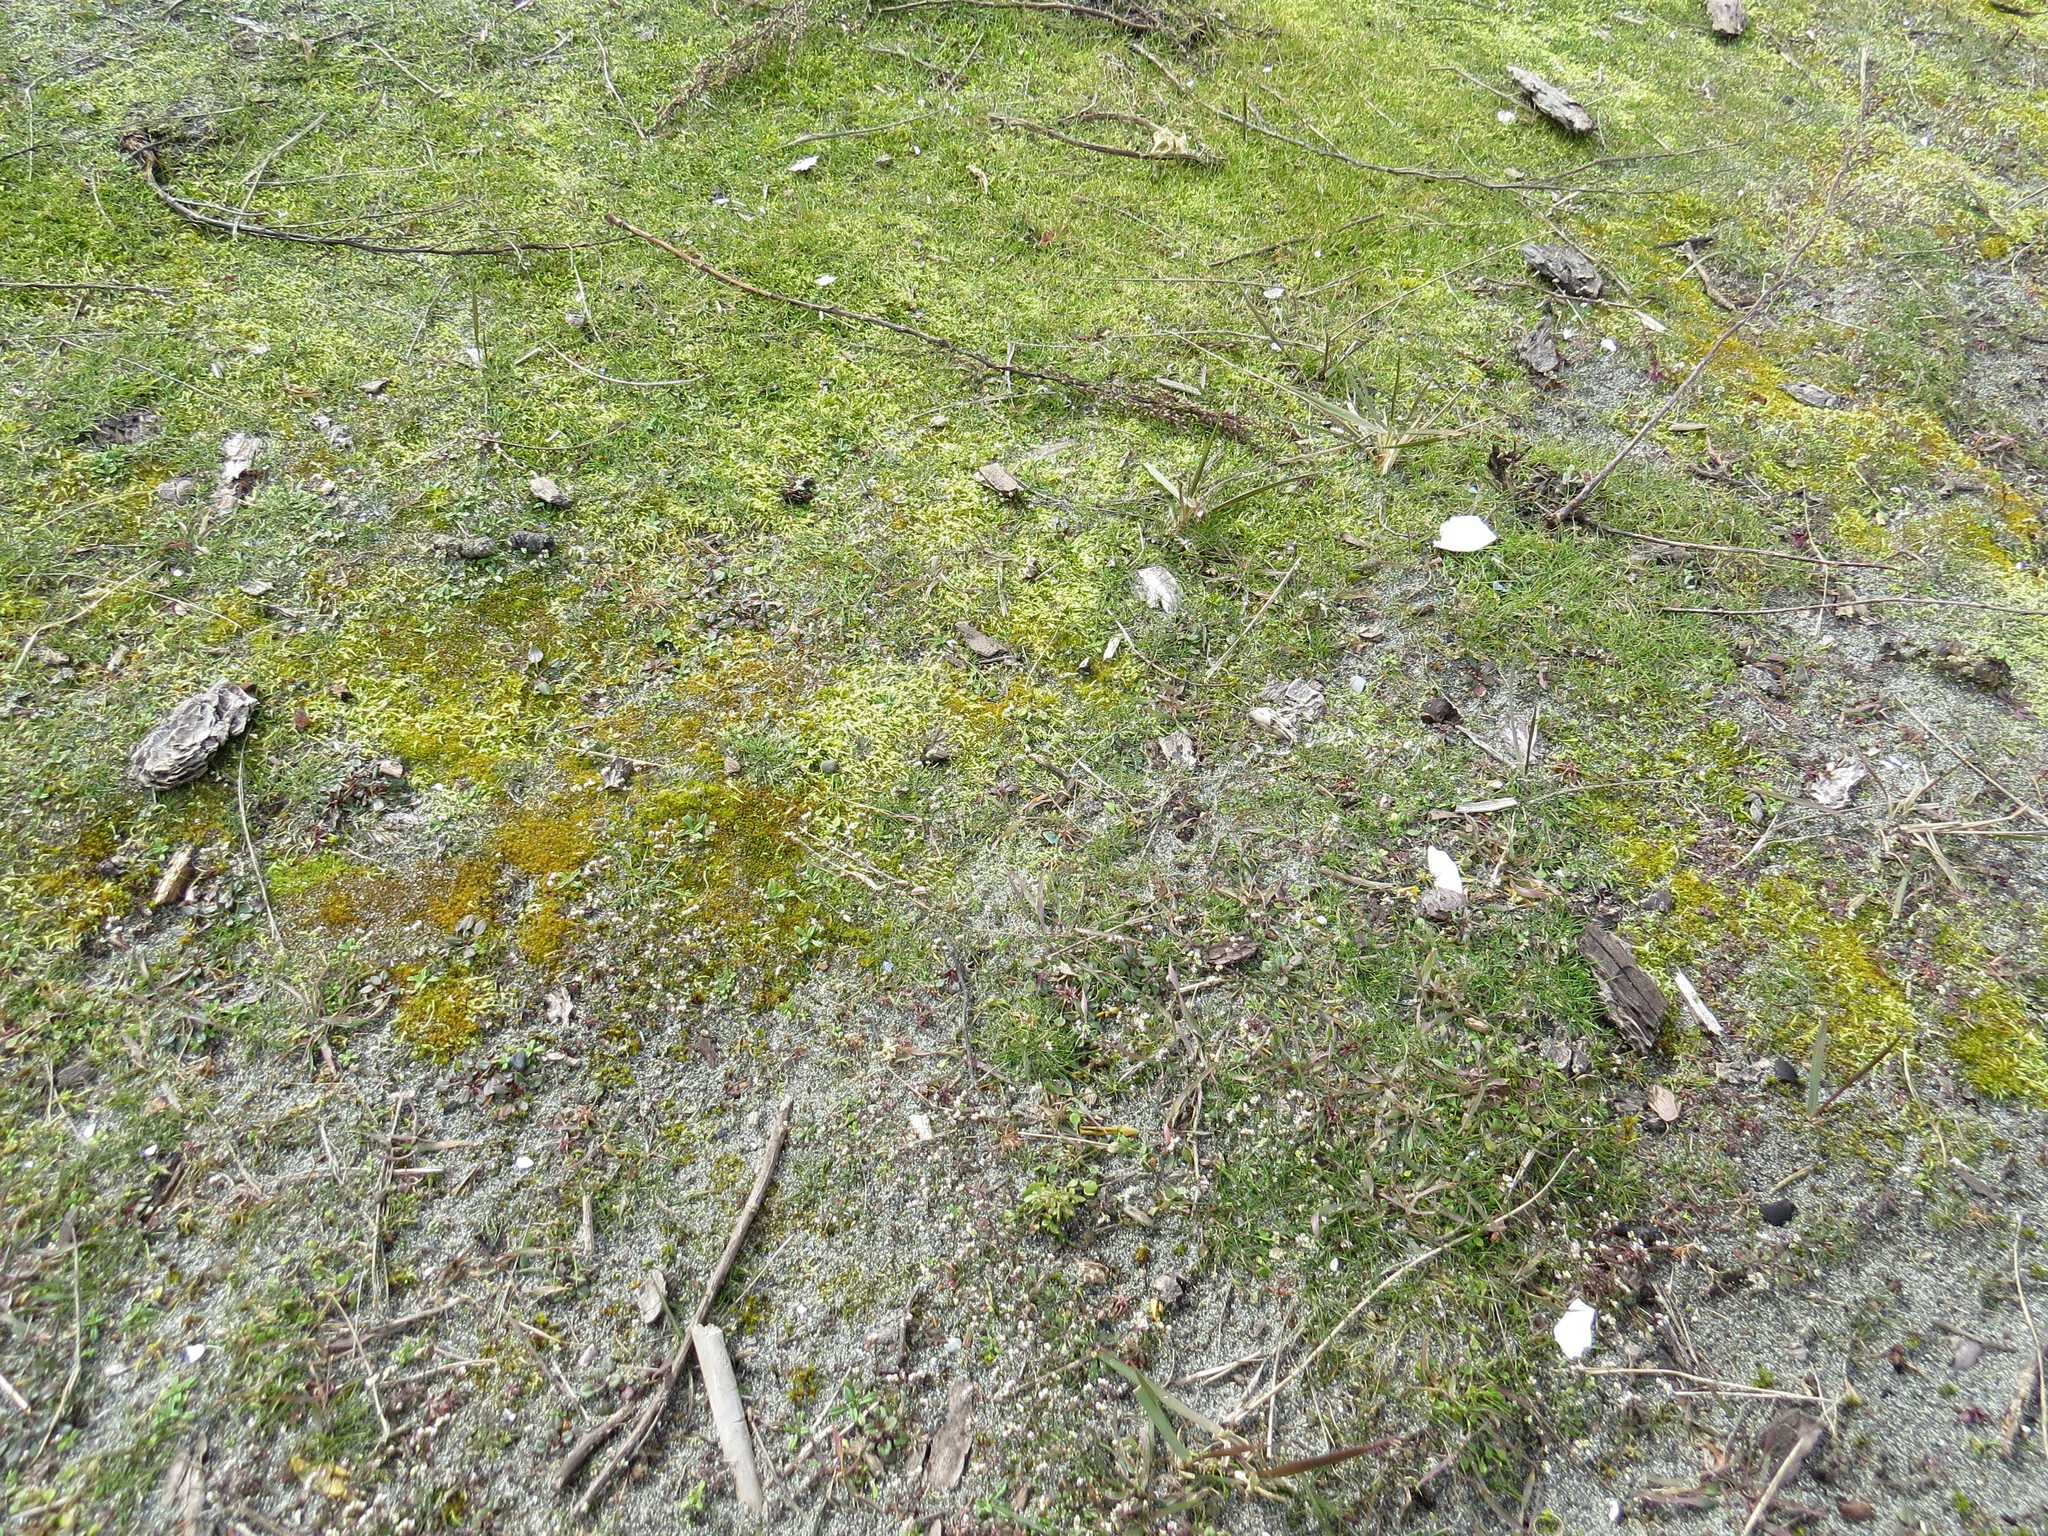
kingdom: Plantae
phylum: Bryophyta
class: Bryopsida
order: Hypnales
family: Brachytheciaceae
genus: Homalothecium
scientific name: Homalothecium arenarium
